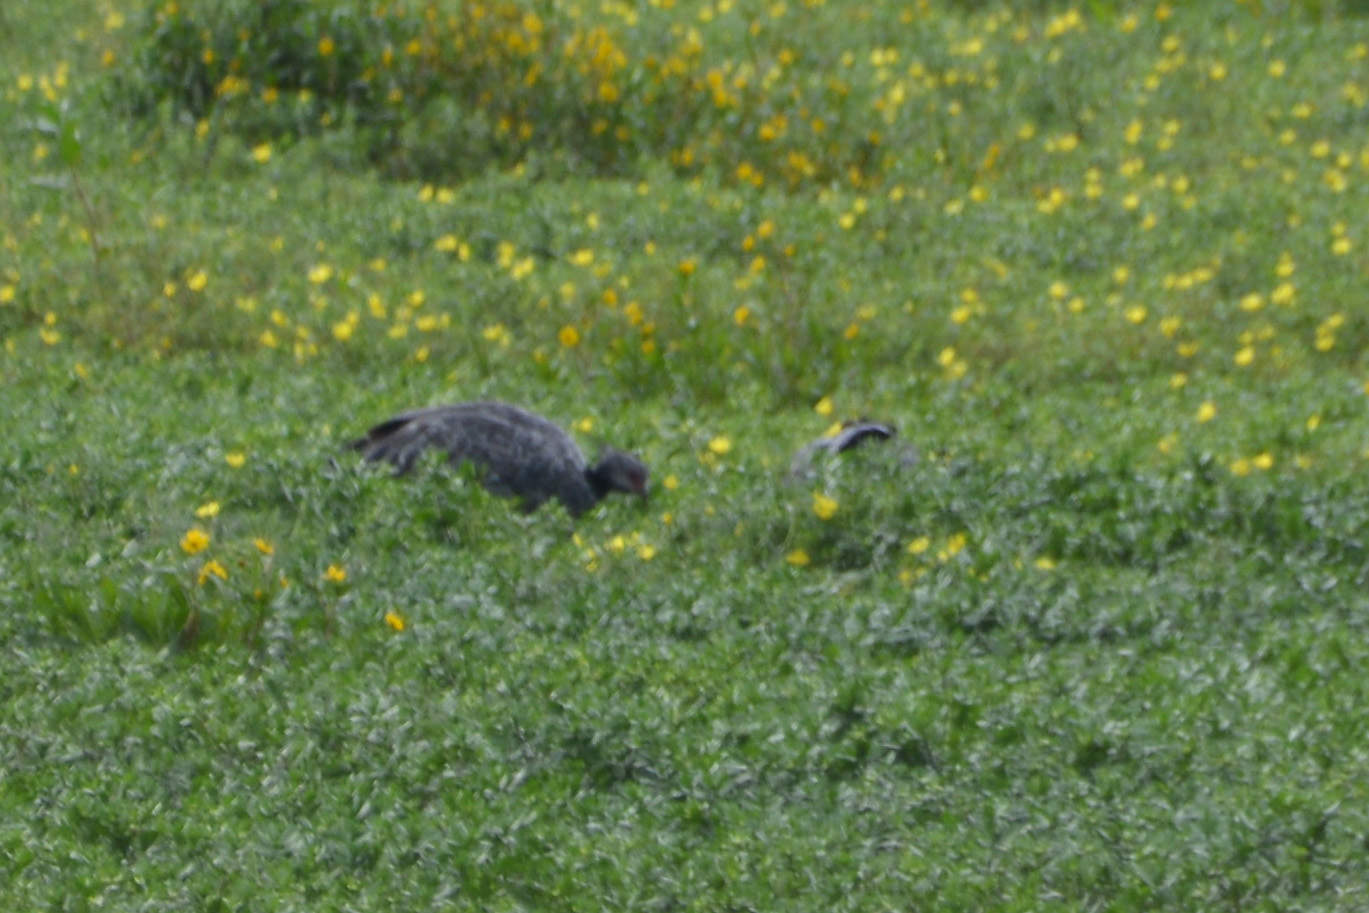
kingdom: Animalia
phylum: Chordata
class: Aves
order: Anseriformes
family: Anhimidae
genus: Chauna
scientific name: Chauna torquata
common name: Southern screamer
